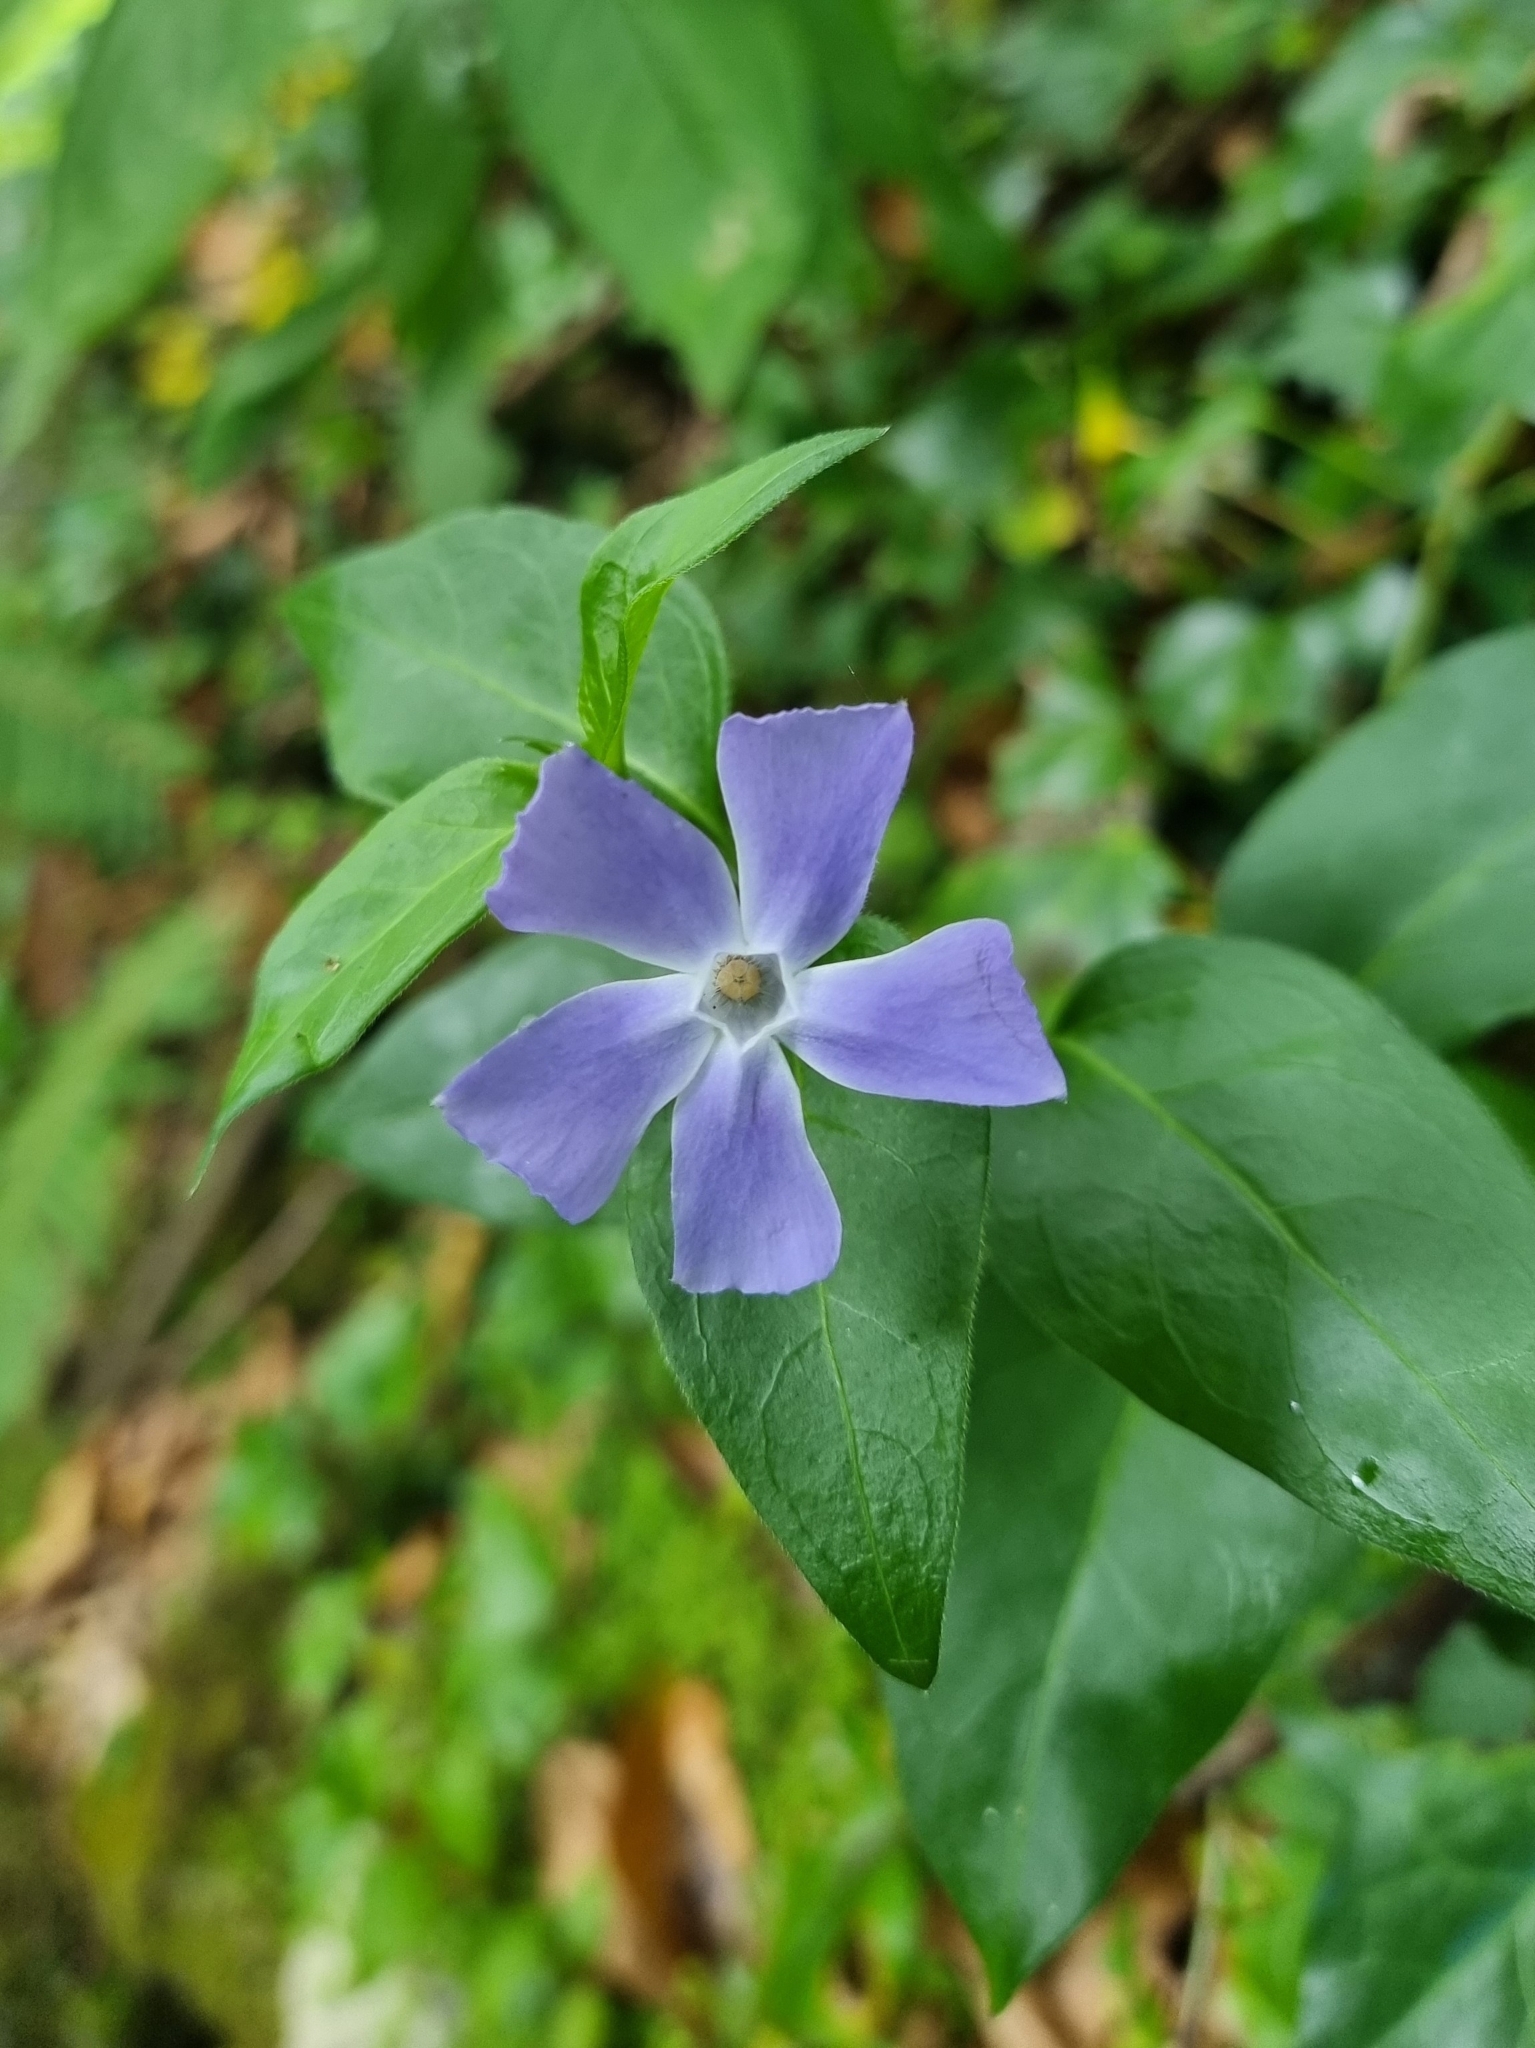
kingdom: Plantae
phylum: Tracheophyta
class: Magnoliopsida
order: Gentianales
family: Apocynaceae
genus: Vinca
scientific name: Vinca major
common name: Greater periwinkle
